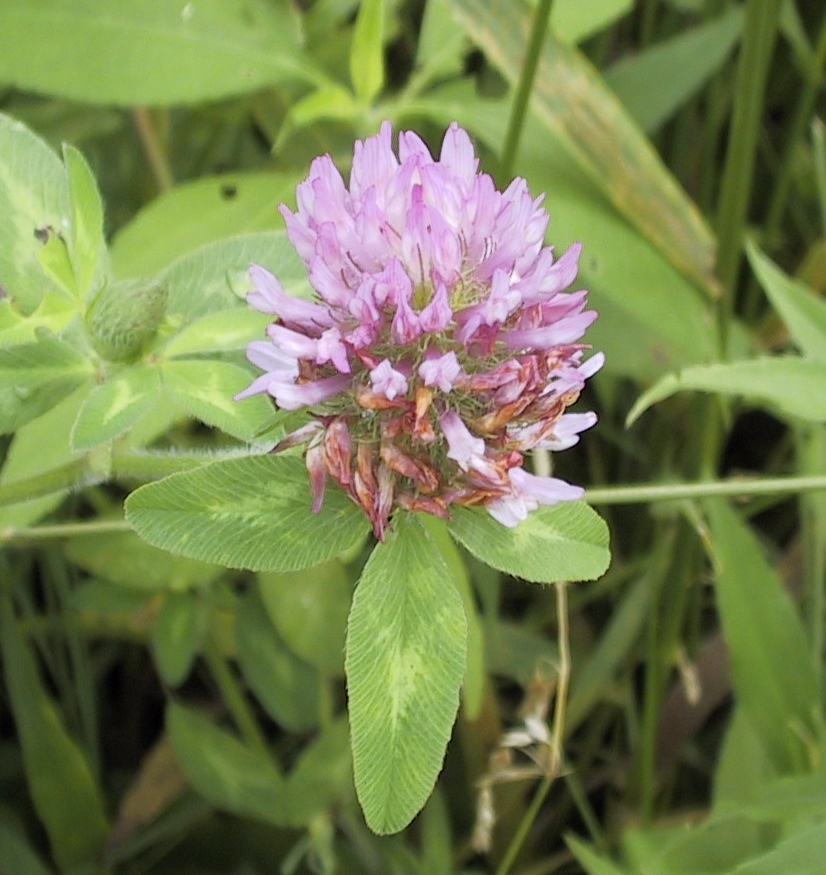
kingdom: Plantae
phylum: Tracheophyta
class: Magnoliopsida
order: Fabales
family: Fabaceae
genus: Trifolium
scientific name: Trifolium pratense
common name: Red clover
